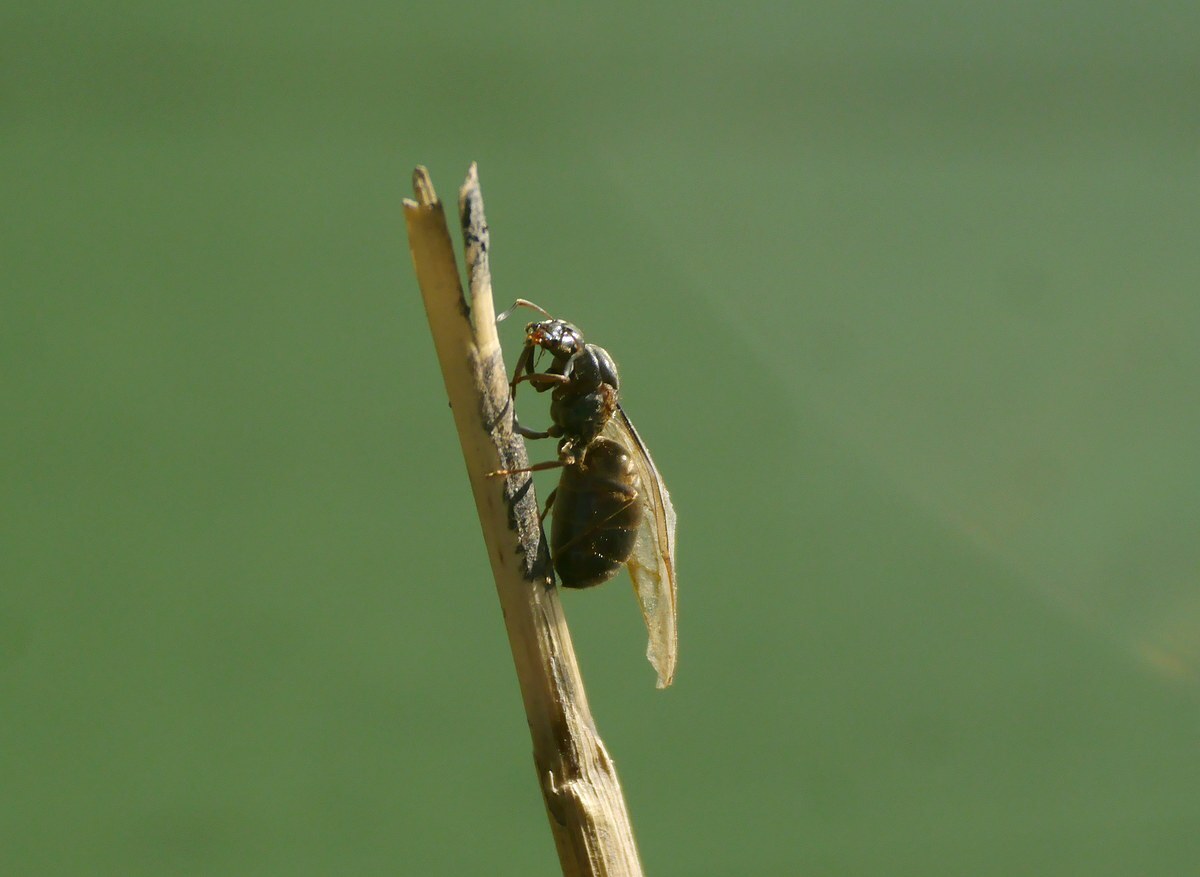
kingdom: Animalia
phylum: Arthropoda
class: Insecta
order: Hymenoptera
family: Formicidae
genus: Lasius
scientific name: Lasius niger
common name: Small black ant
